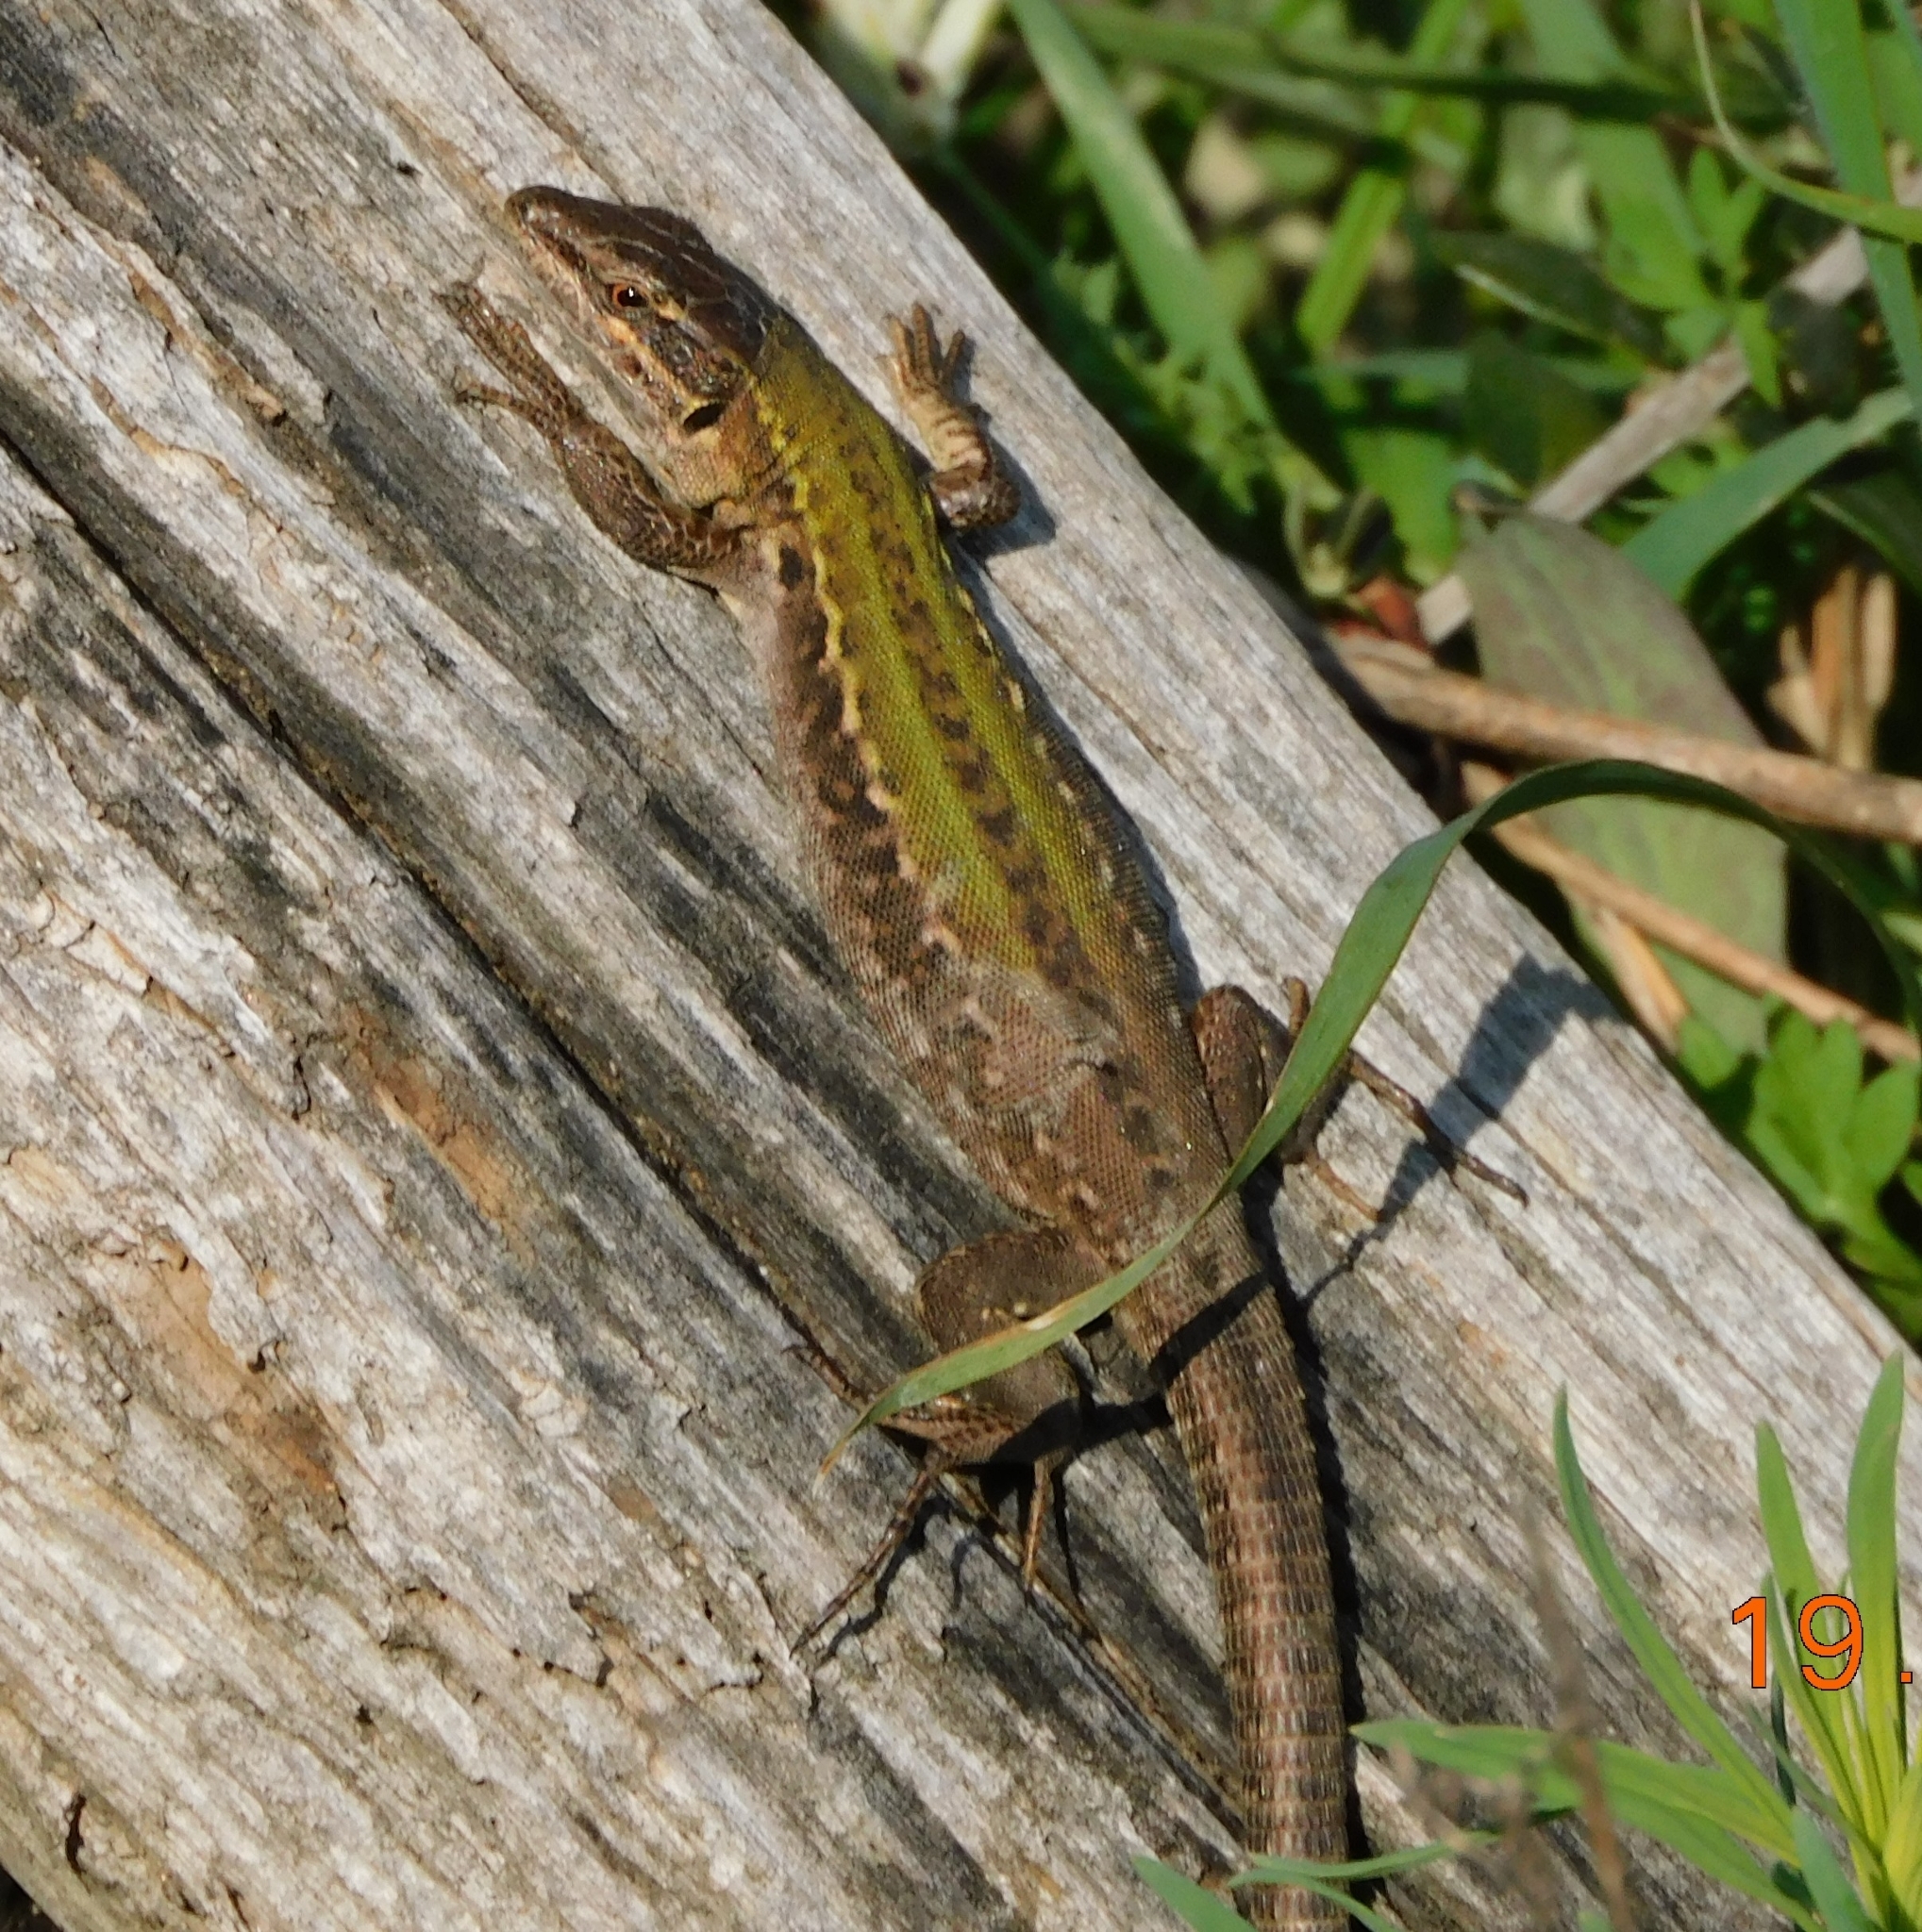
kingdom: Animalia
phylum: Chordata
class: Squamata
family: Lacertidae
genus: Podarcis
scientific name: Podarcis siculus
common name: Italian wall lizard
